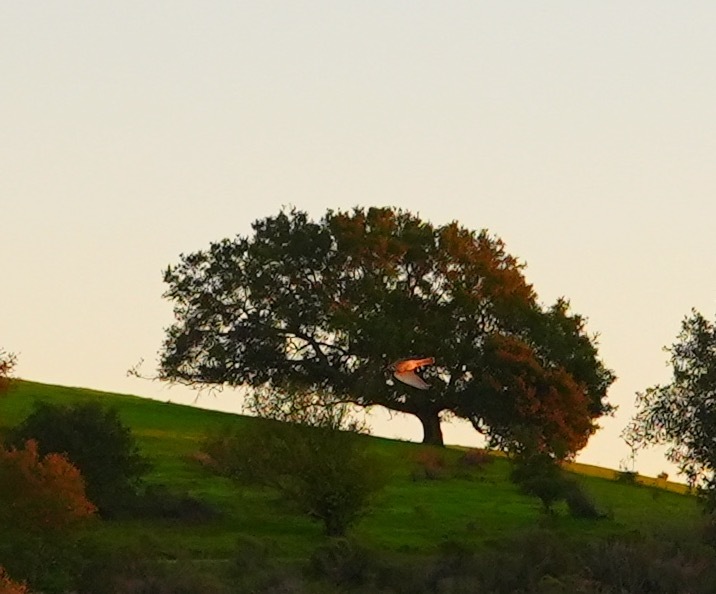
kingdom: Animalia
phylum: Chordata
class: Aves
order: Falconiformes
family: Falconidae
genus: Falco
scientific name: Falco sparverius
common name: American kestrel
